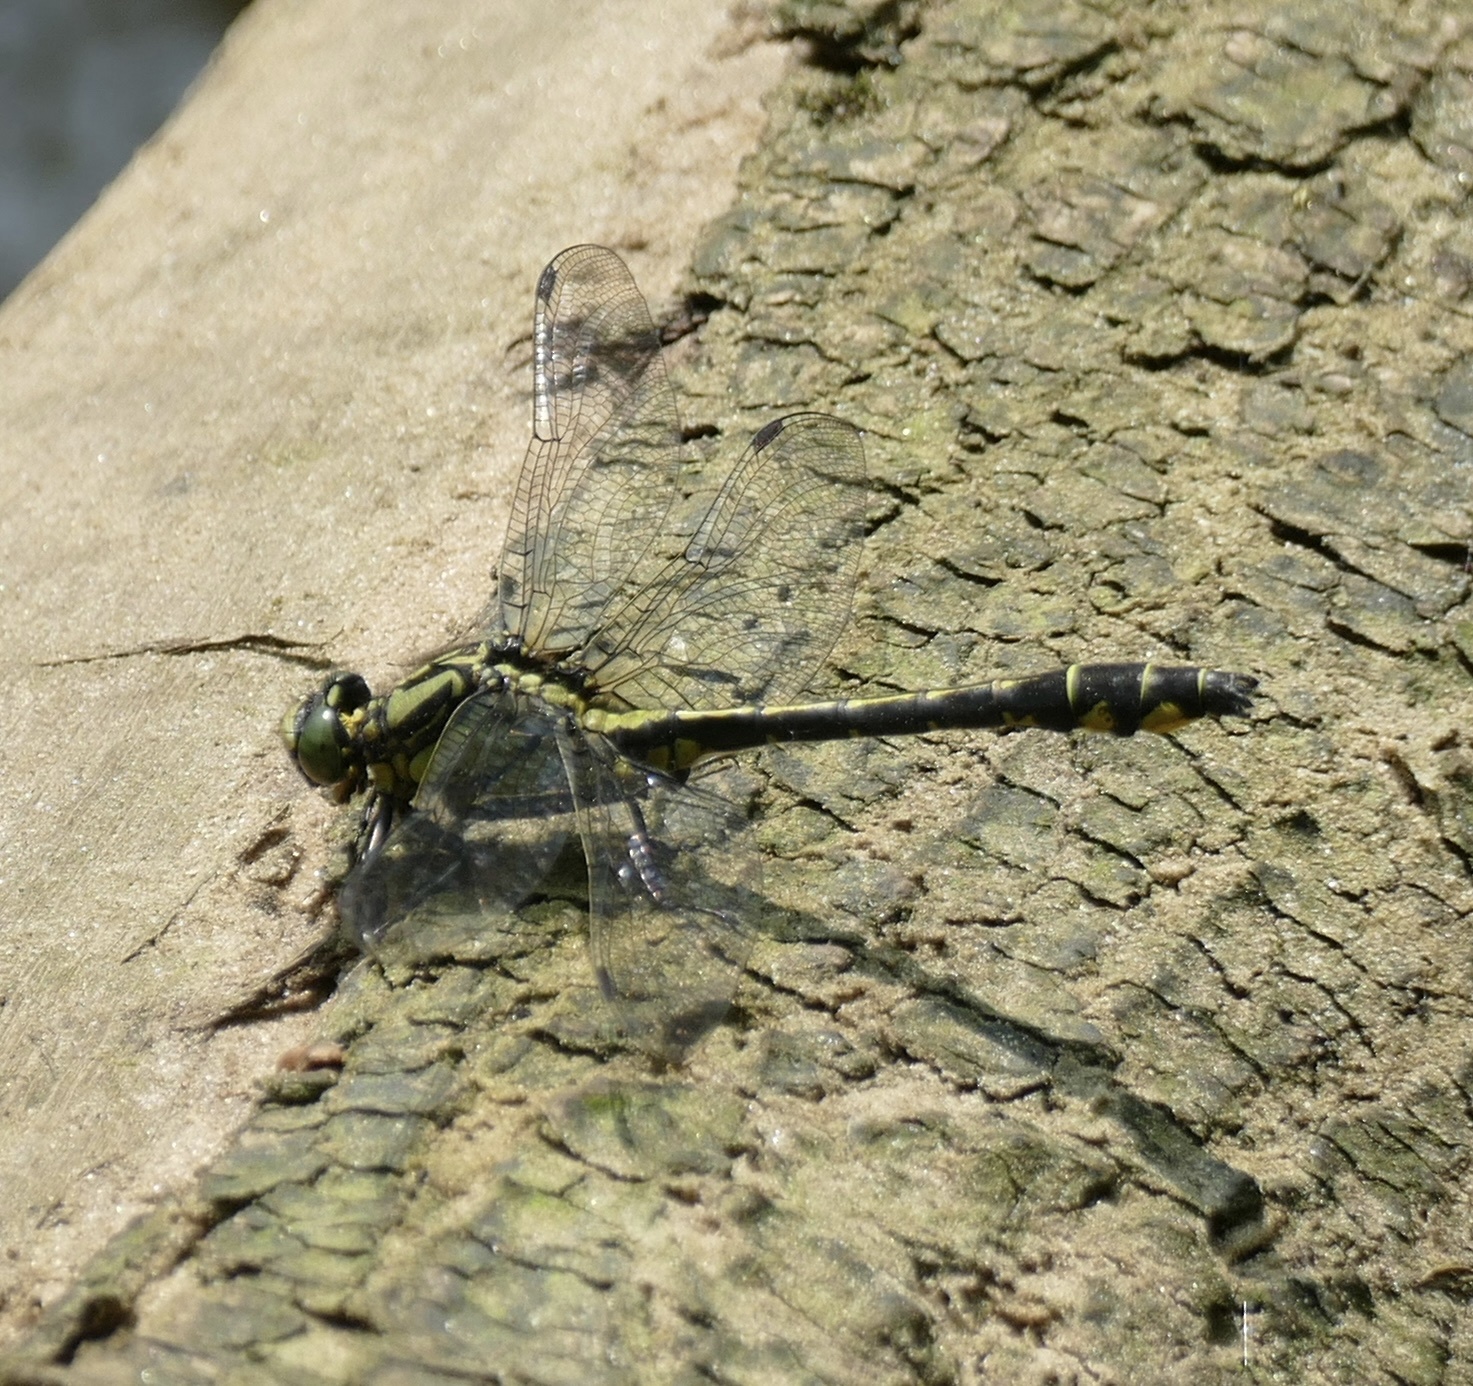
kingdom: Animalia
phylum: Arthropoda
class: Insecta
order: Odonata
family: Gomphidae
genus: Gomphus
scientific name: Gomphus vulgatissimus
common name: Club-tailed dragonfly
